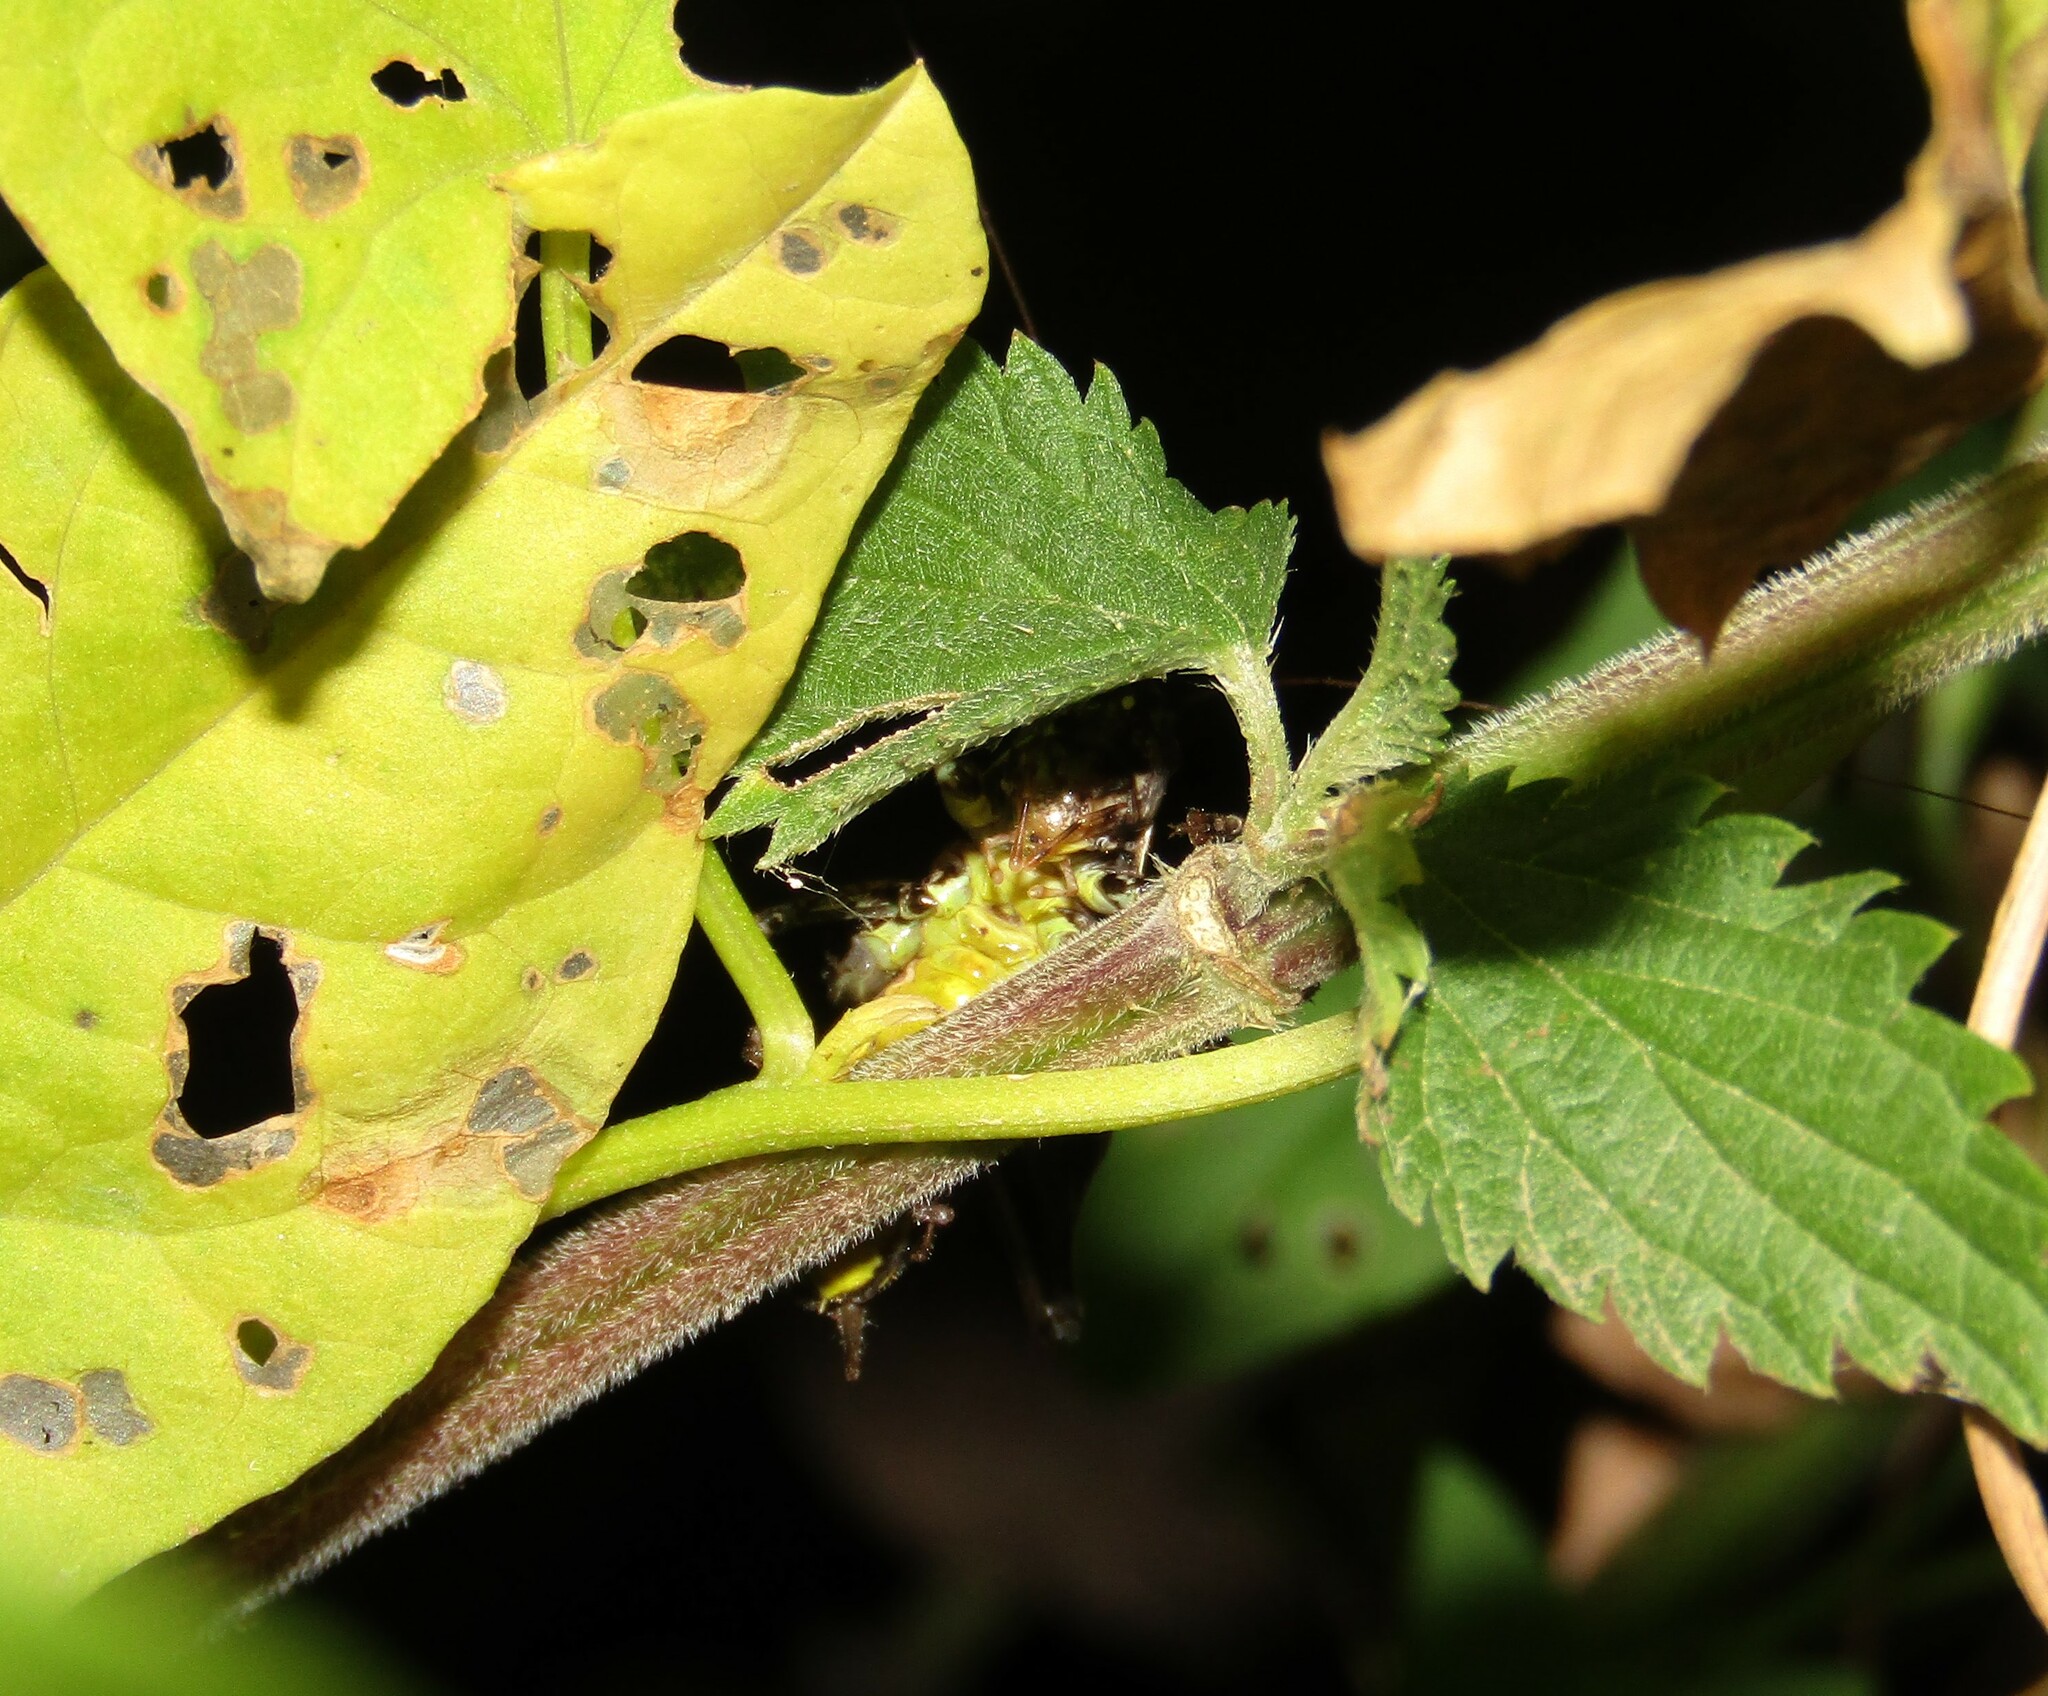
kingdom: Animalia
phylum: Arthropoda
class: Insecta
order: Orthoptera
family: Tettigoniidae
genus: Roeseliana
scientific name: Roeseliana roeselii
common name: Roesel's bush cricket
